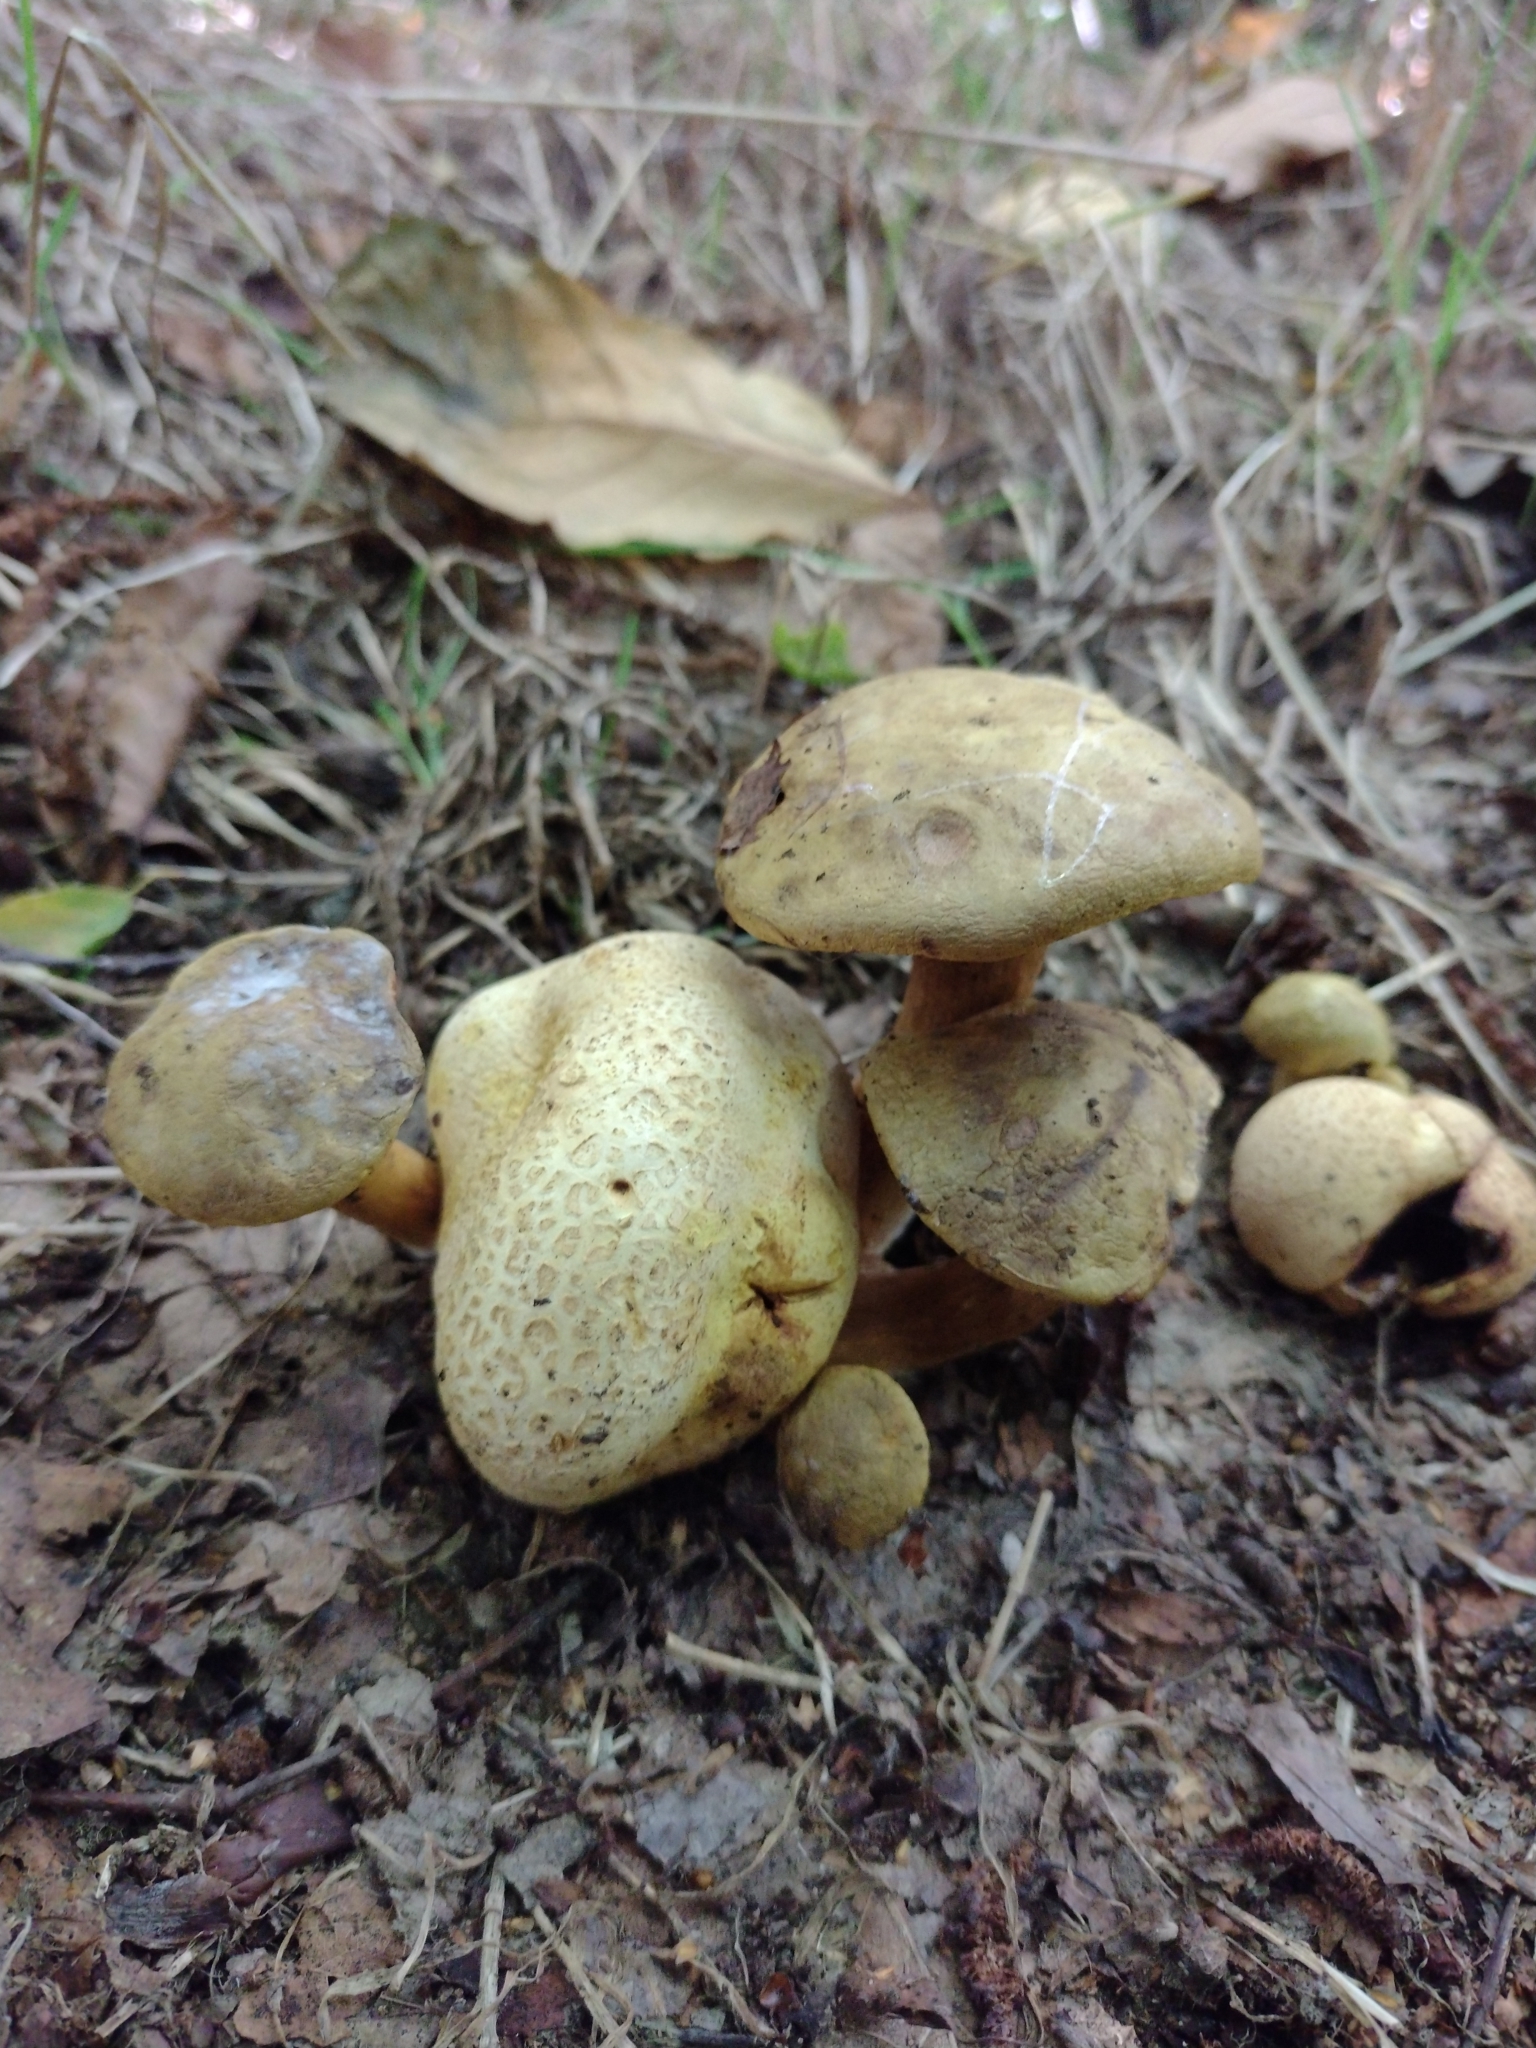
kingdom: Fungi
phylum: Basidiomycota
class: Agaricomycetes
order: Boletales
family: Boletaceae
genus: Pseudoboletus
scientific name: Pseudoboletus parasiticus
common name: Parasitic bolete
